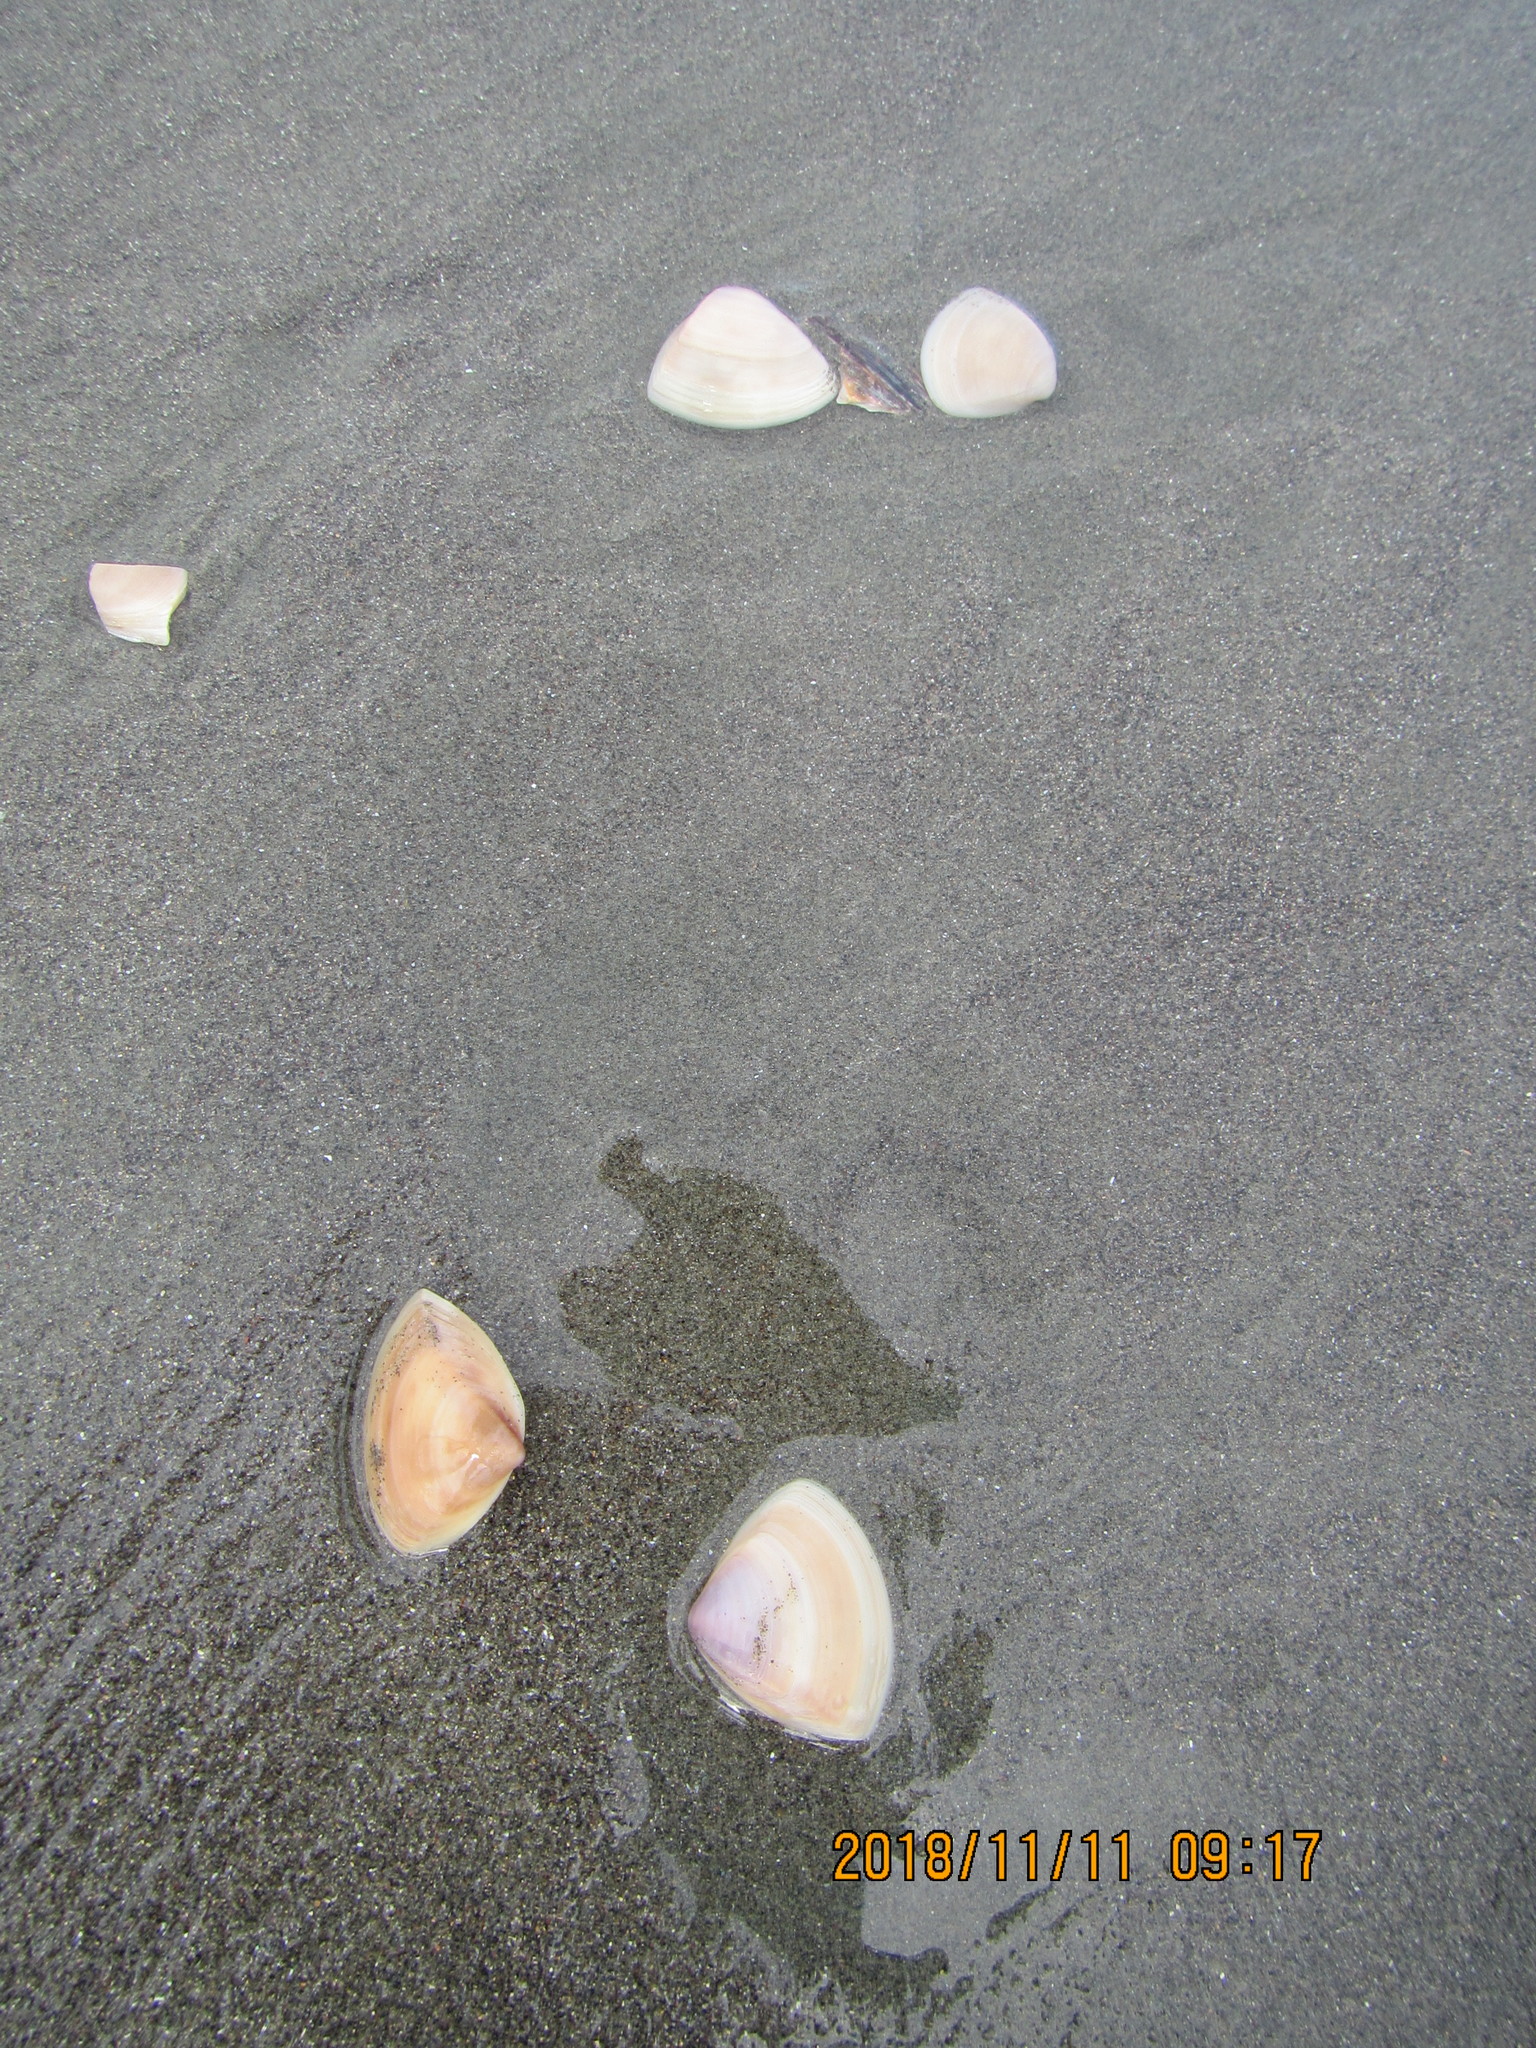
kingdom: Animalia
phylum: Mollusca
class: Bivalvia
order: Venerida
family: Mactridae
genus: Crassula
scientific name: Crassula aequilatera
